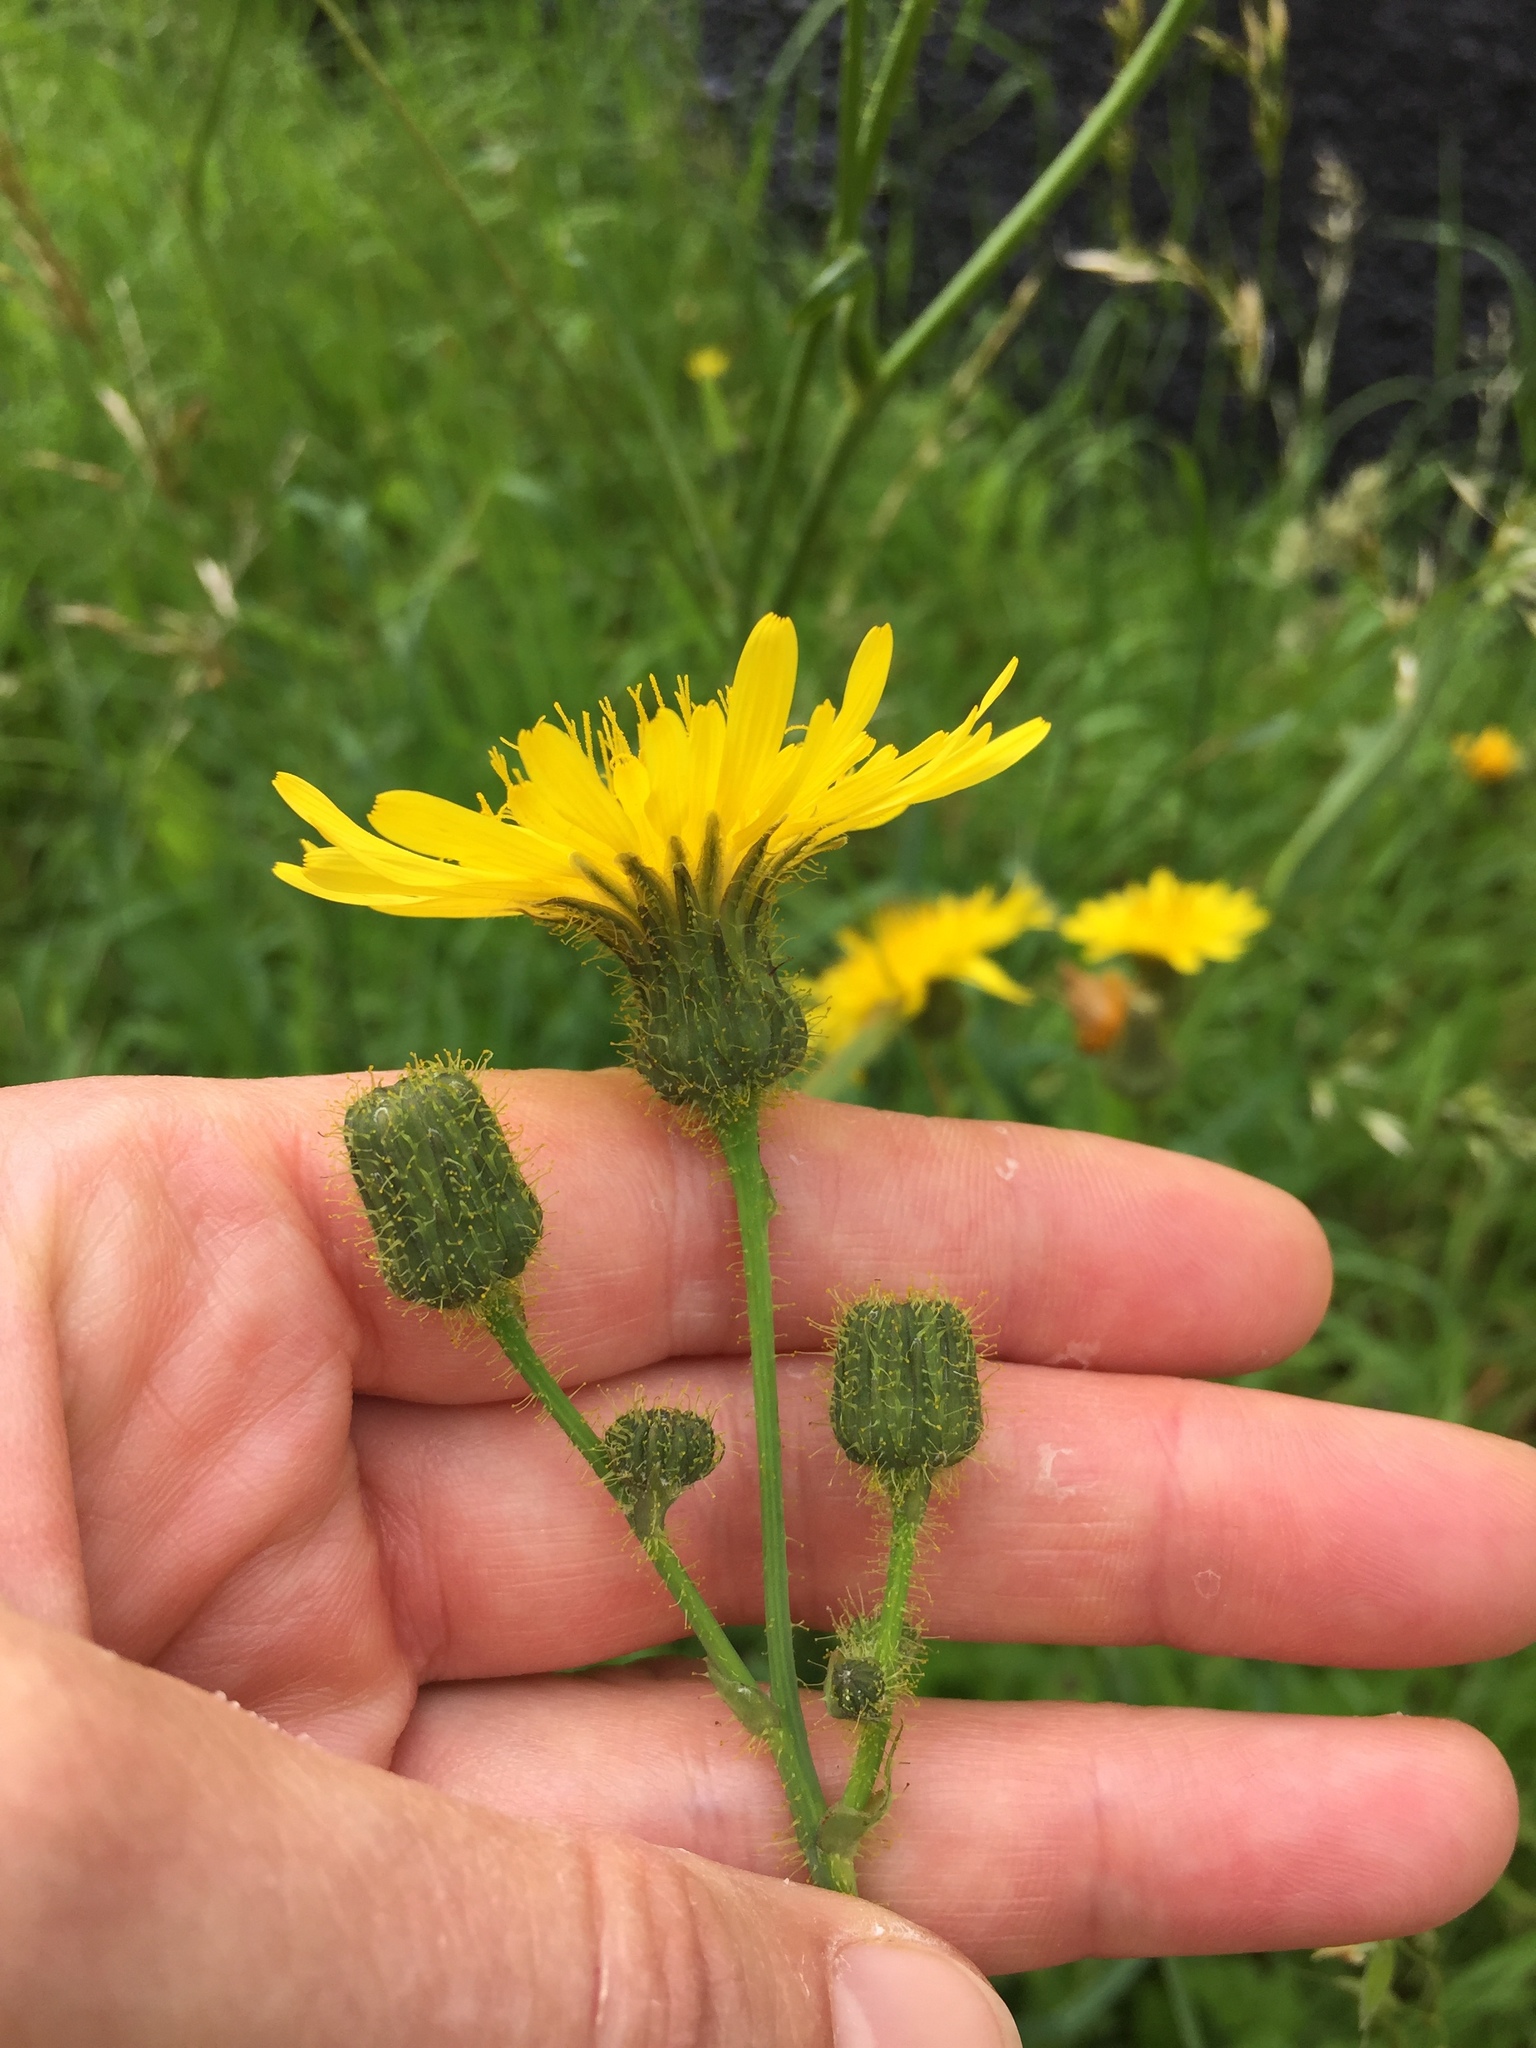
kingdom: Plantae
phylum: Tracheophyta
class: Magnoliopsida
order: Asterales
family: Asteraceae
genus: Sonchus
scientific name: Sonchus arvensis
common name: Perennial sow-thistle
